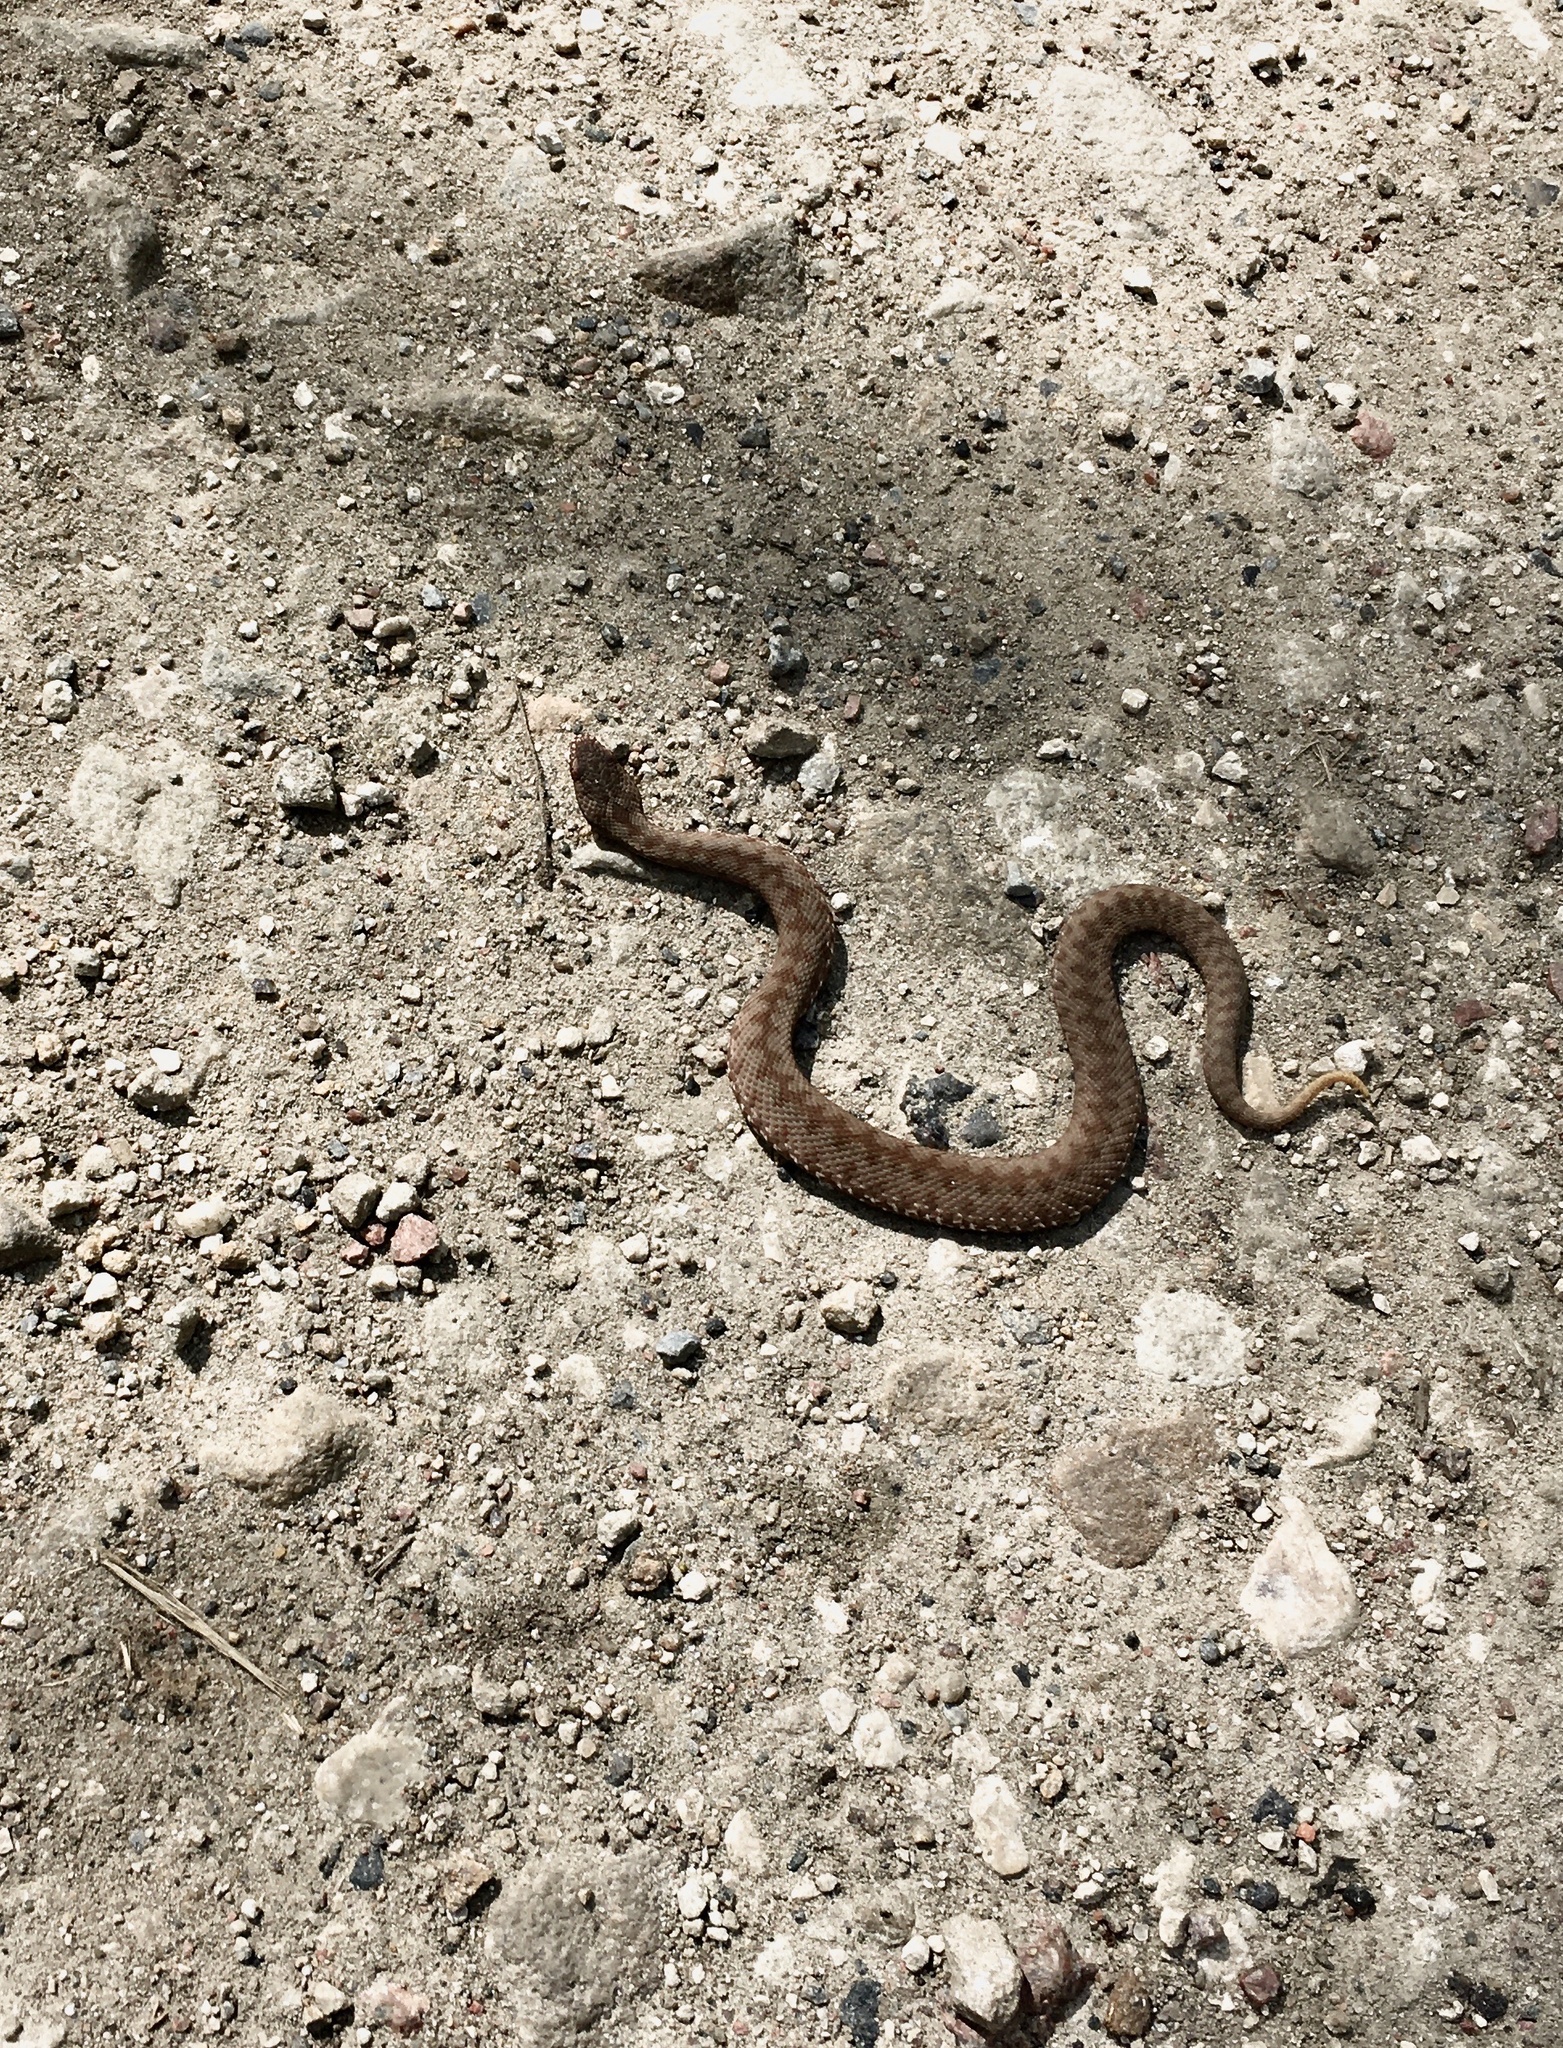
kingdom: Animalia
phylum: Chordata
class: Squamata
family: Viperidae
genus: Vipera
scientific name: Vipera berus
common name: Adder
